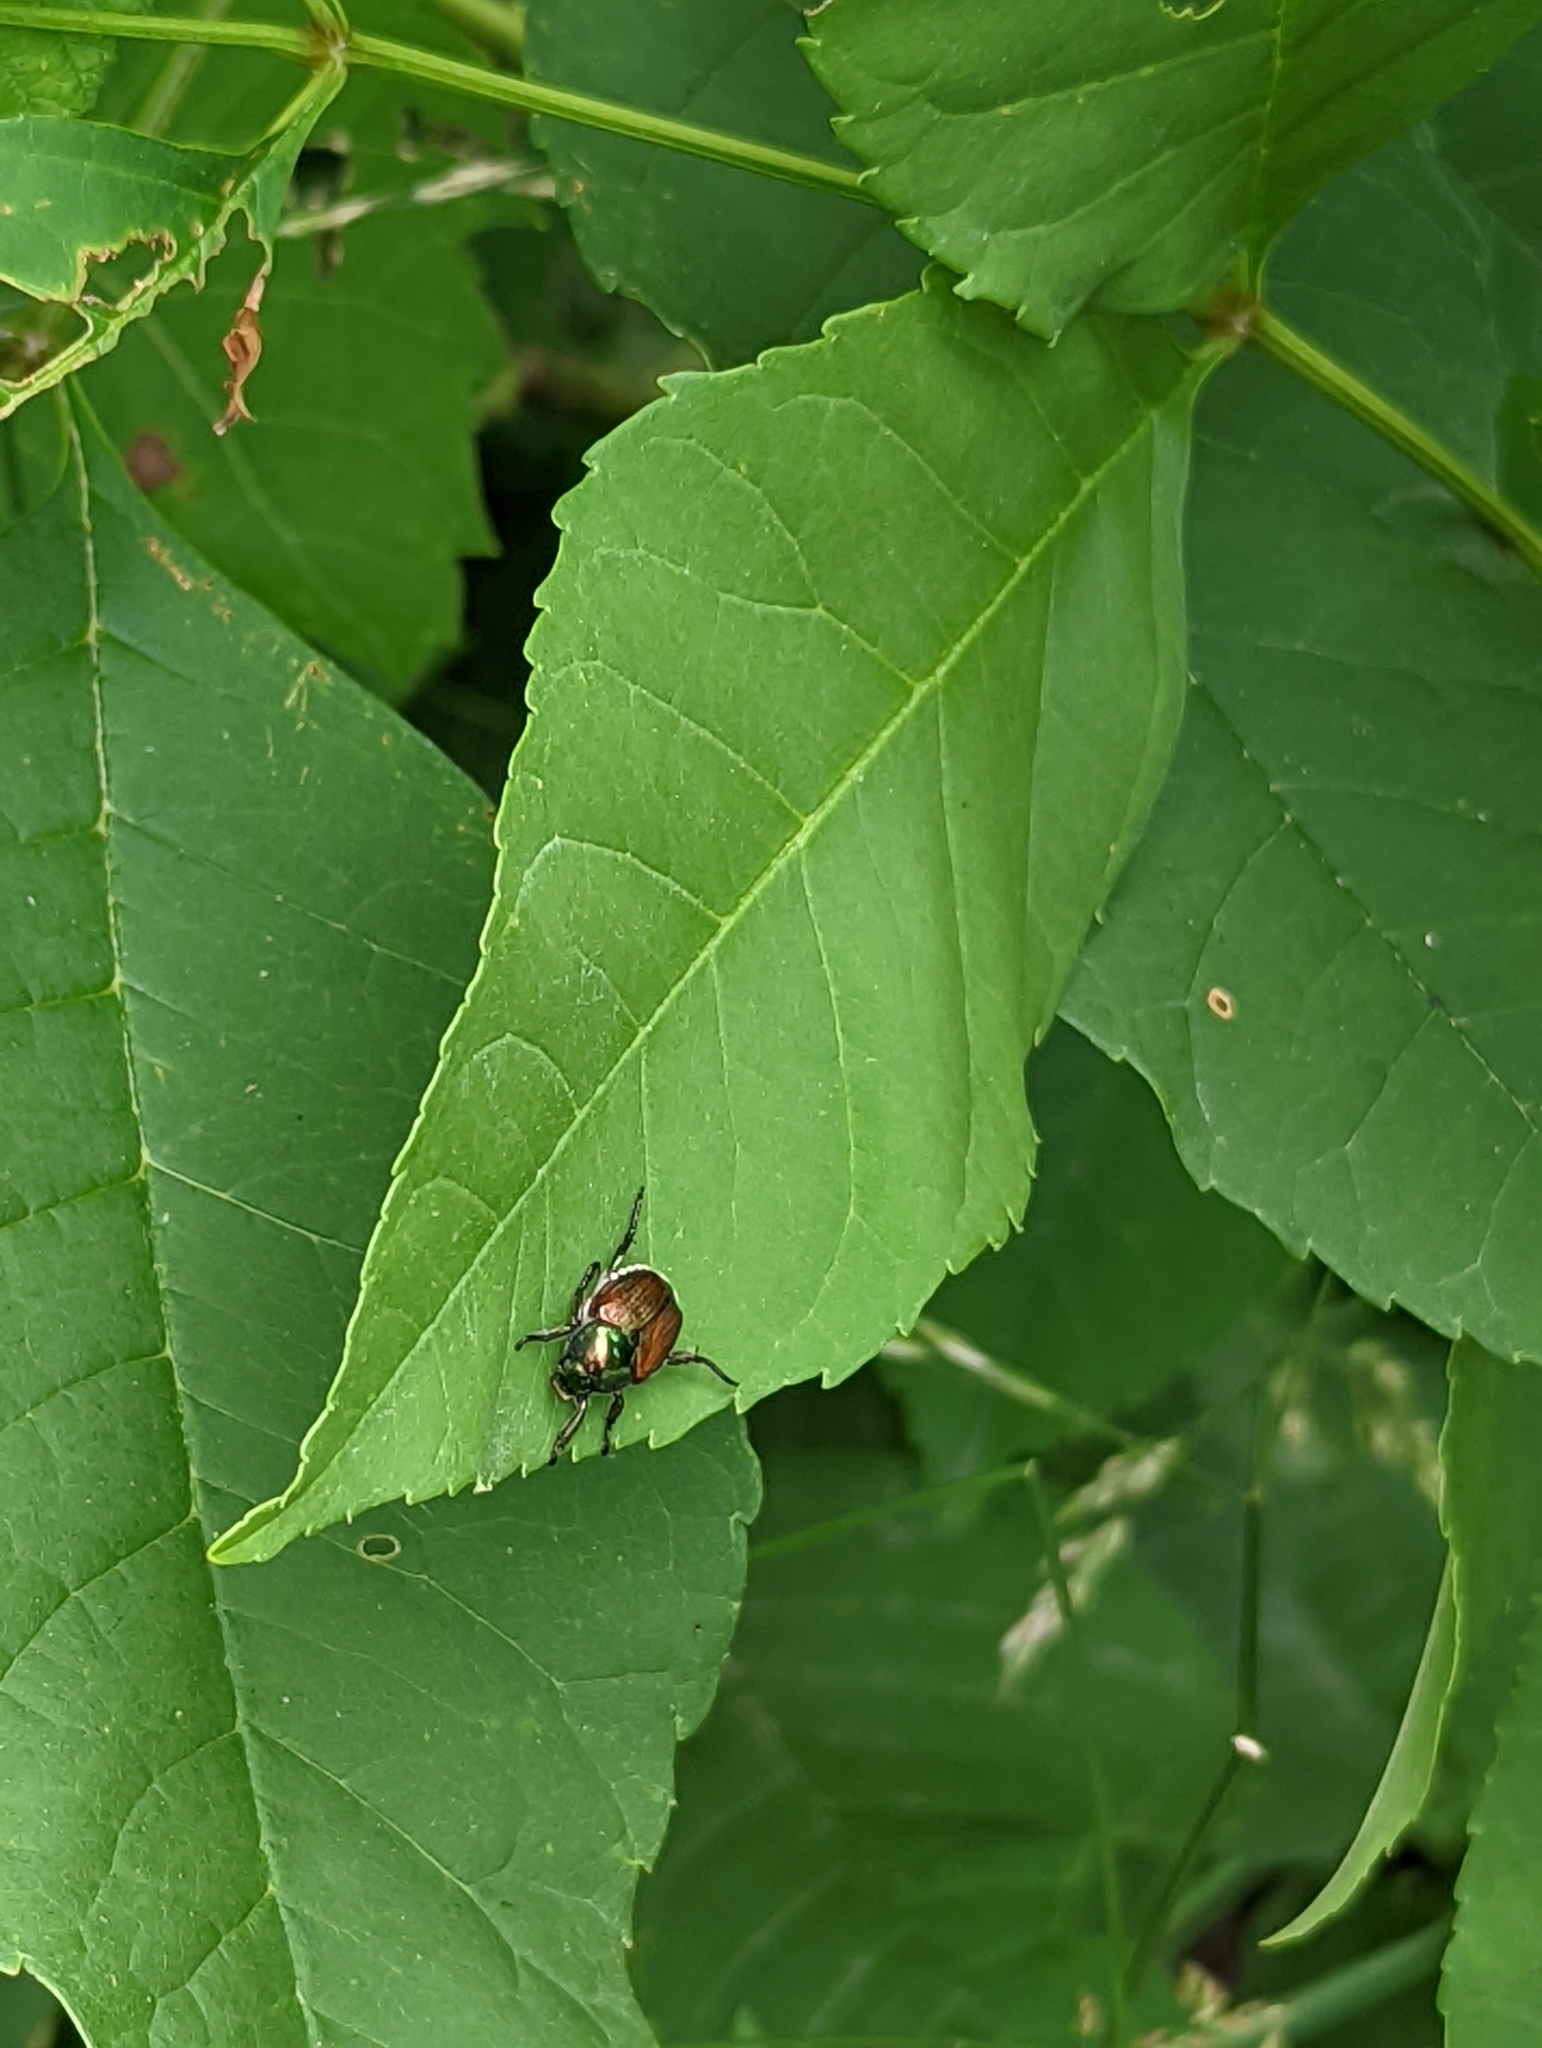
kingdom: Animalia
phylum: Arthropoda
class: Insecta
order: Coleoptera
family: Scarabaeidae
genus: Popillia
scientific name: Popillia japonica
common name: Japanese beetle
